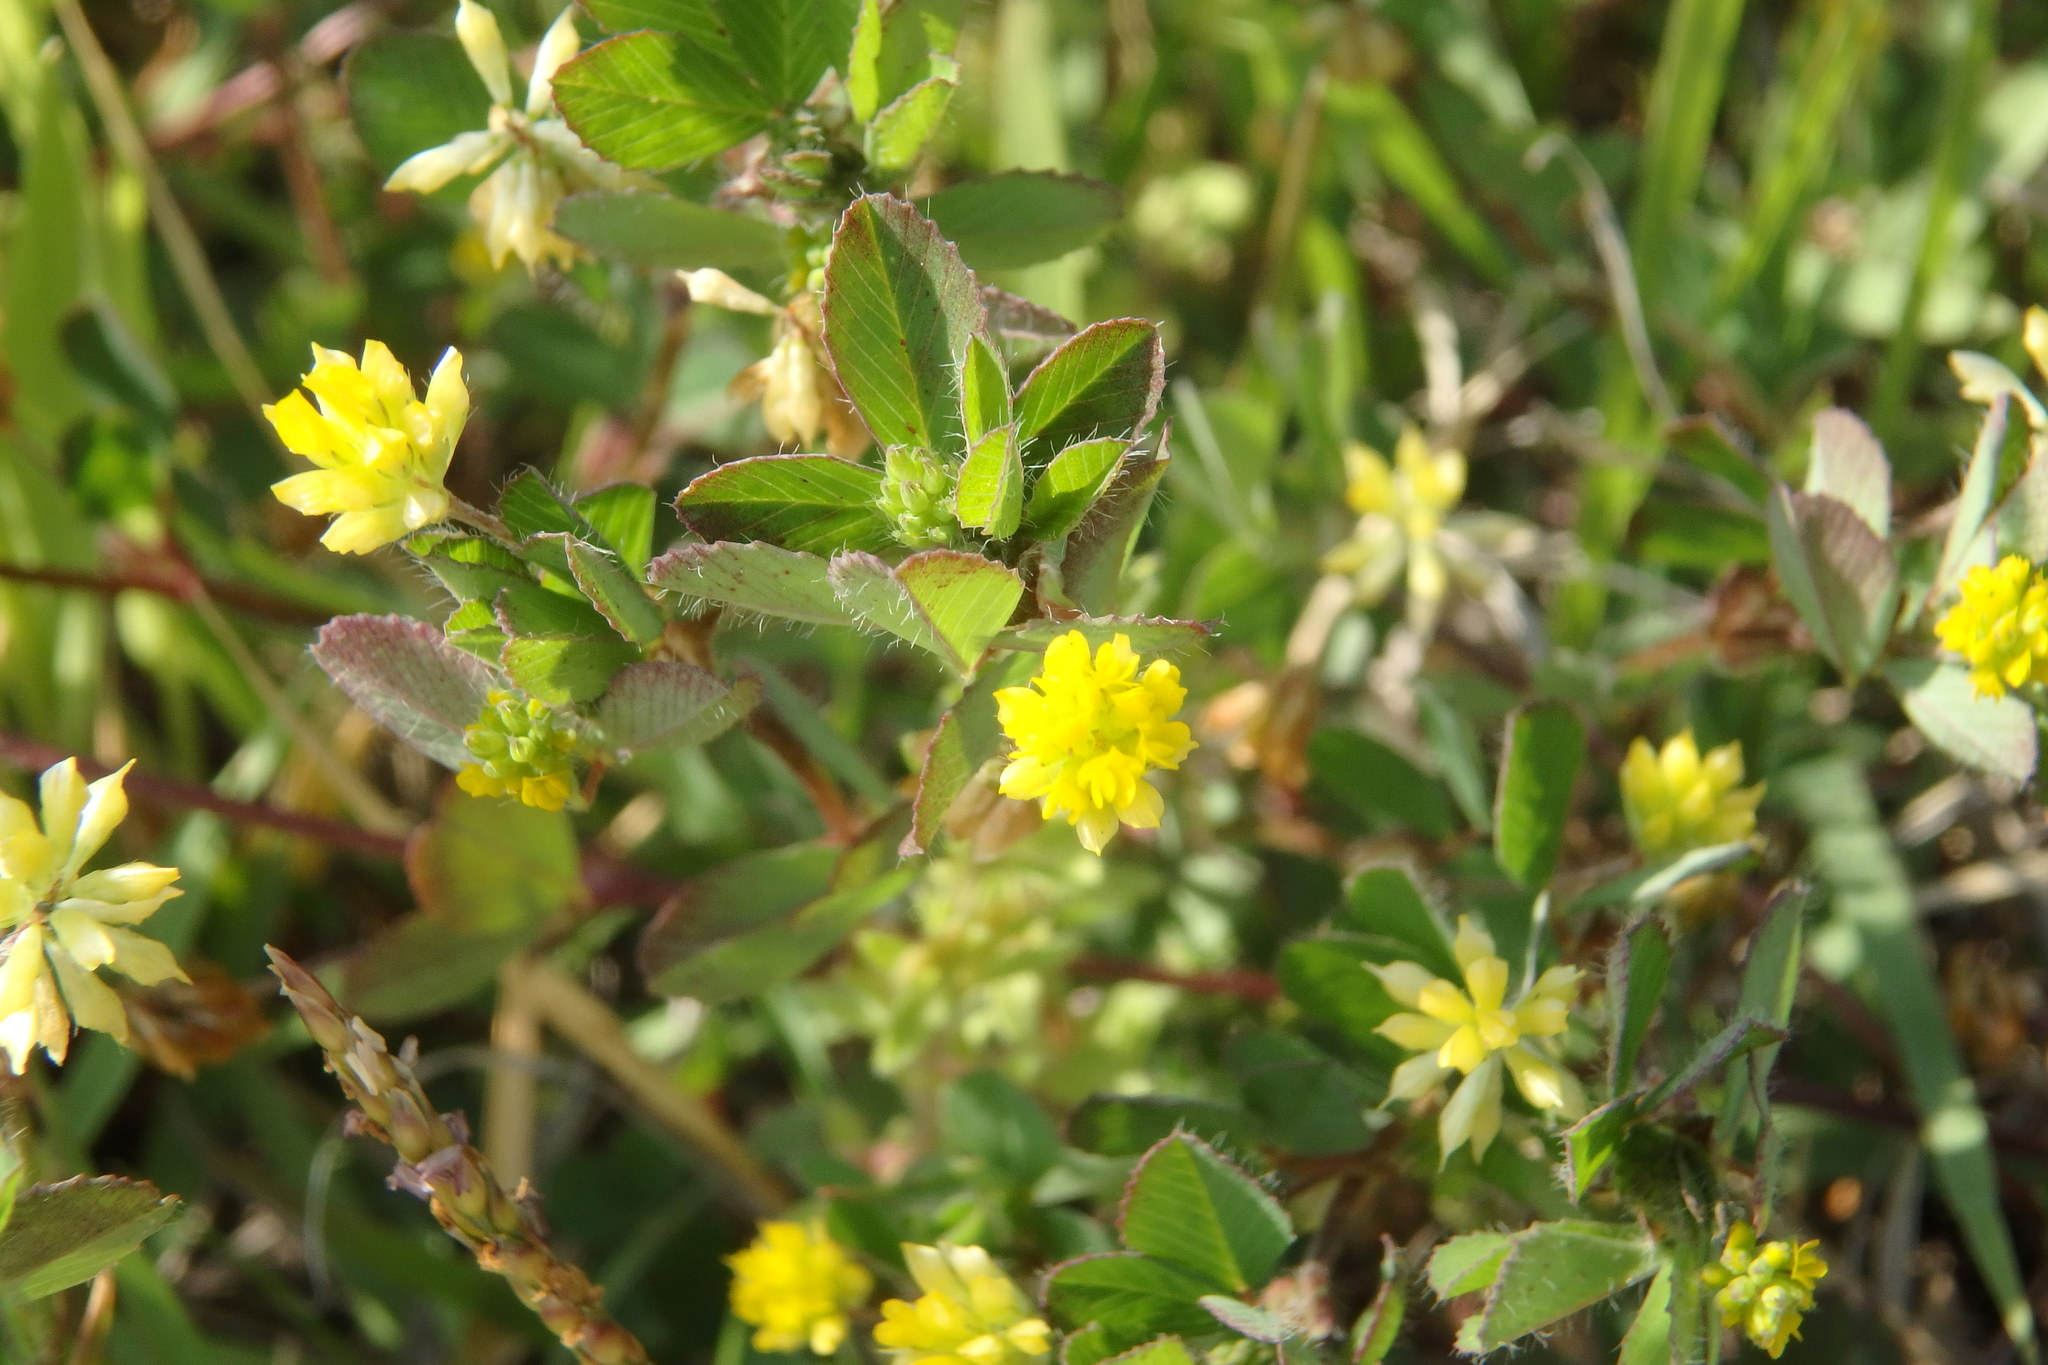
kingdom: Plantae
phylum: Tracheophyta
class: Magnoliopsida
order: Fabales
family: Fabaceae
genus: Trifolium
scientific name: Trifolium dubium
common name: Suckling clover
